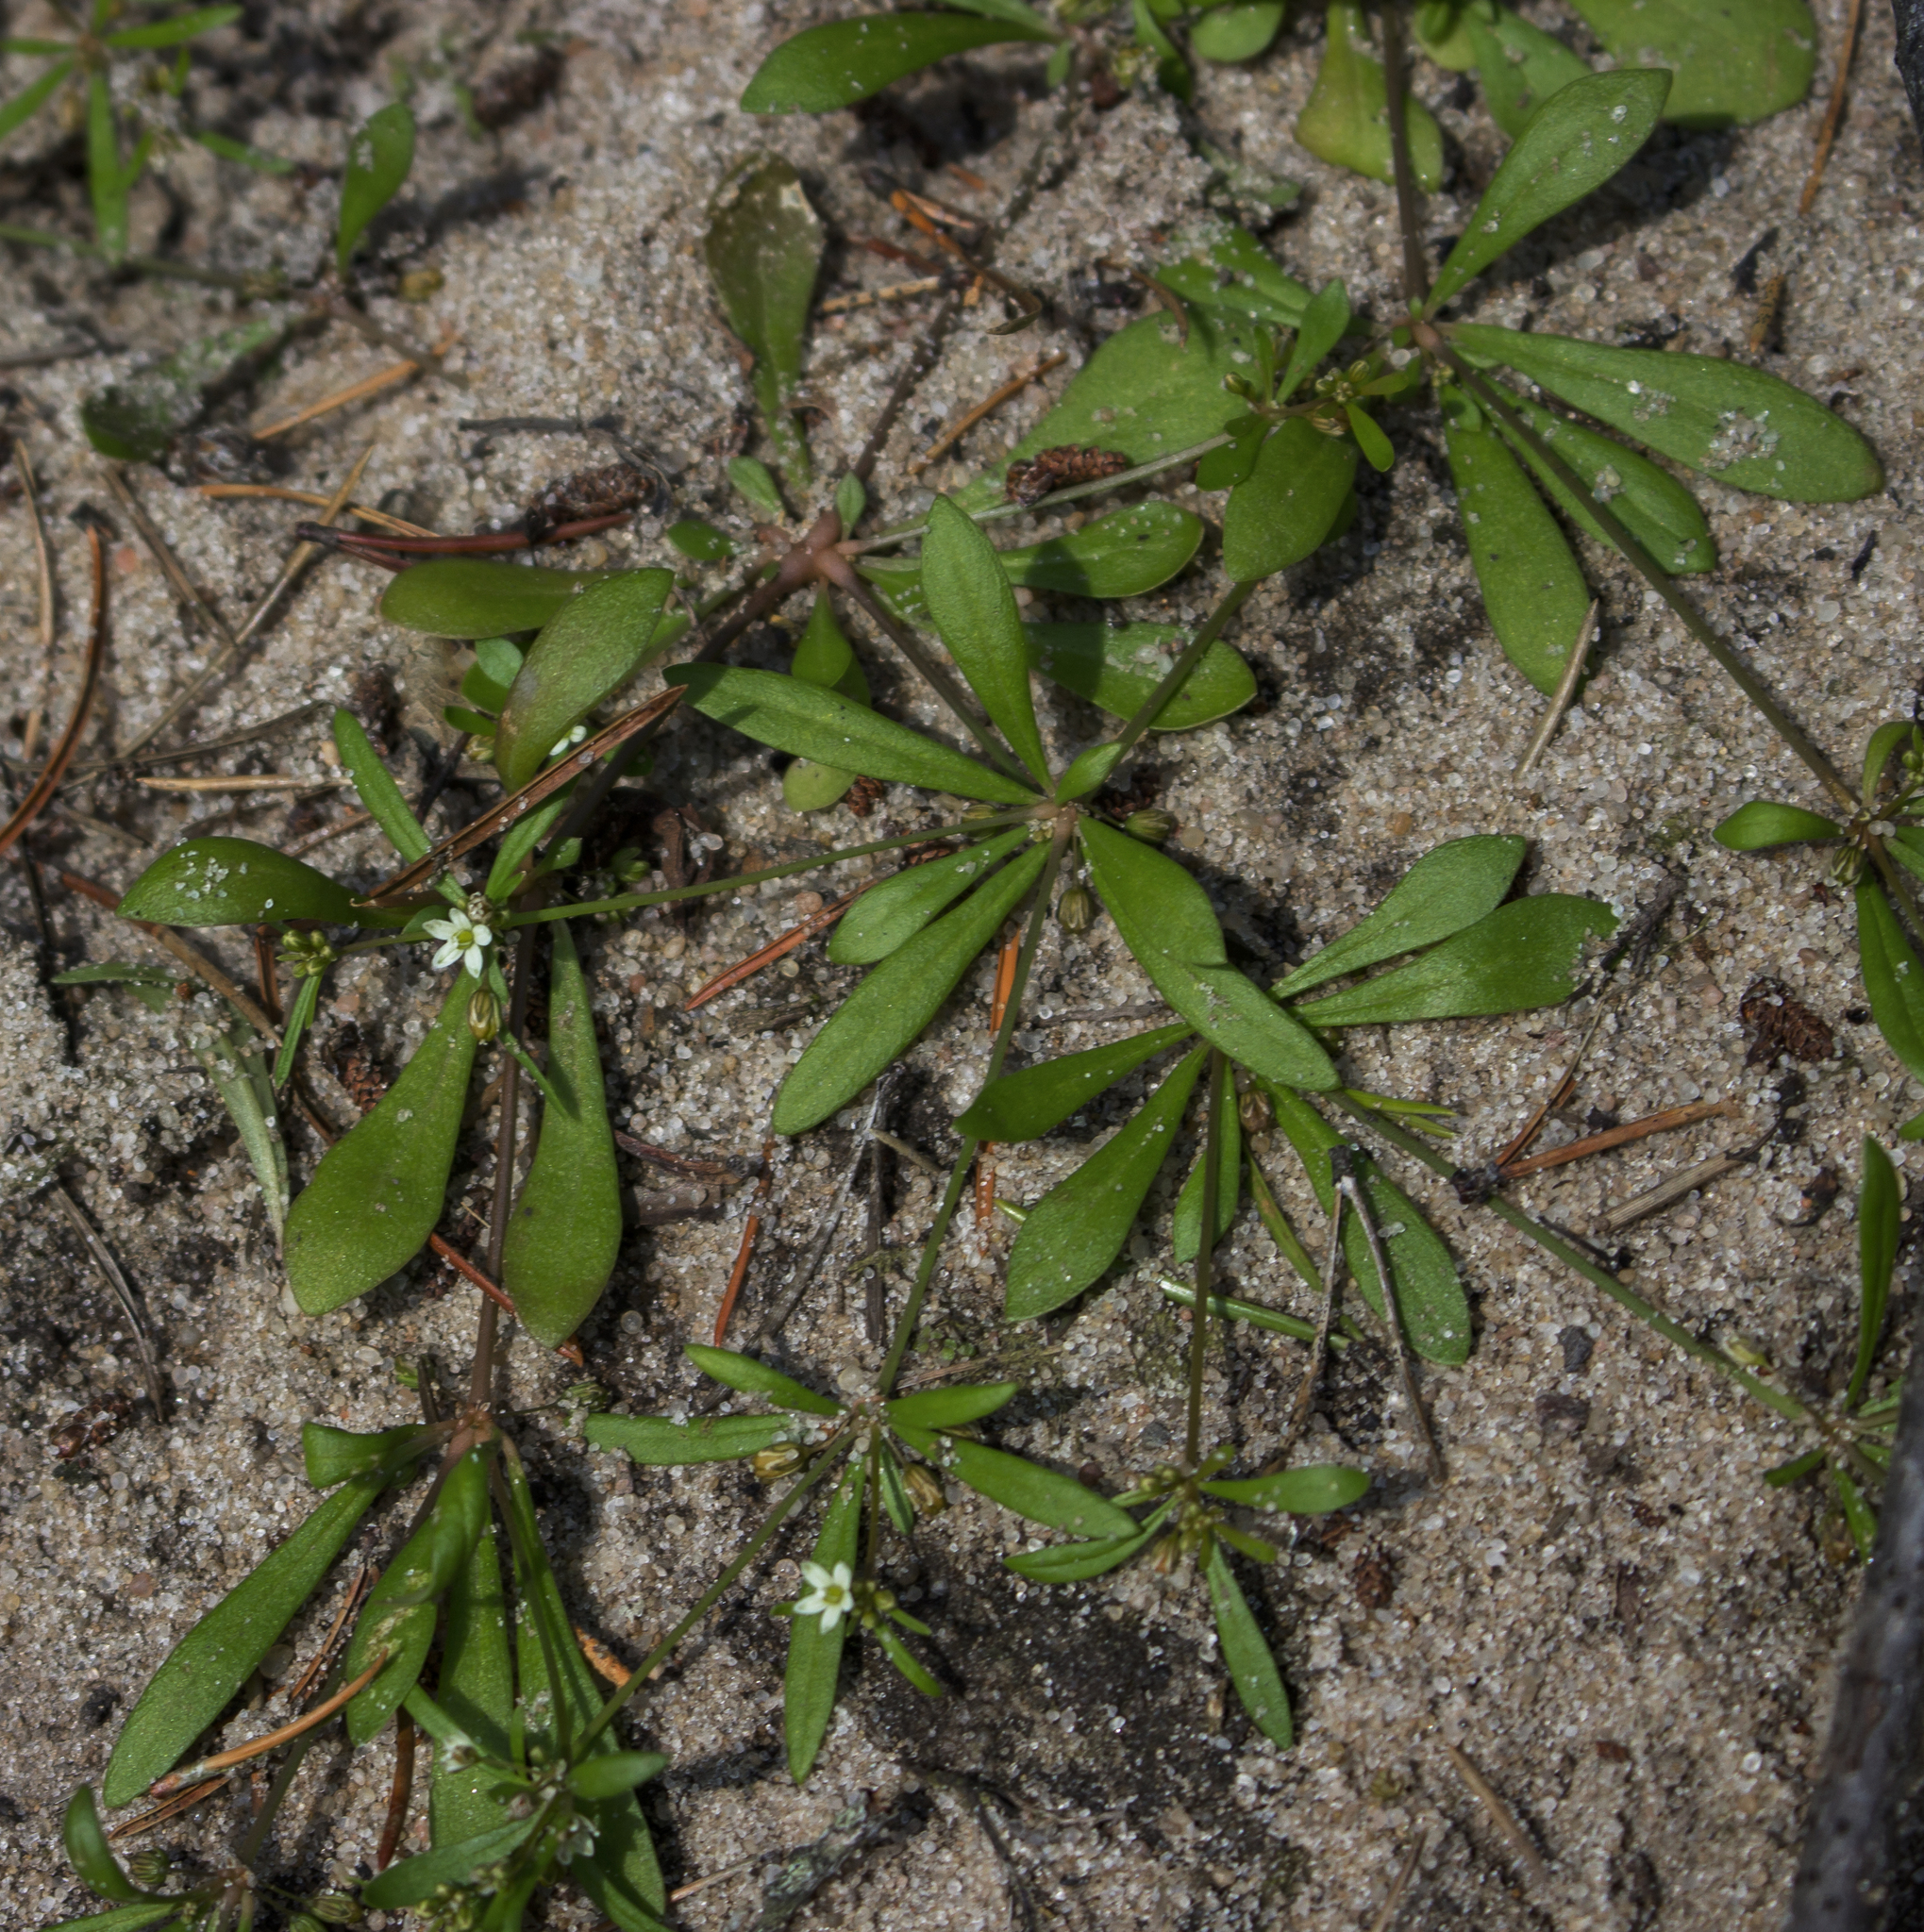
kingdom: Plantae
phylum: Tracheophyta
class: Magnoliopsida
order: Caryophyllales
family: Molluginaceae
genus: Mollugo
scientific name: Mollugo verticillata
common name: Green carpetweed
